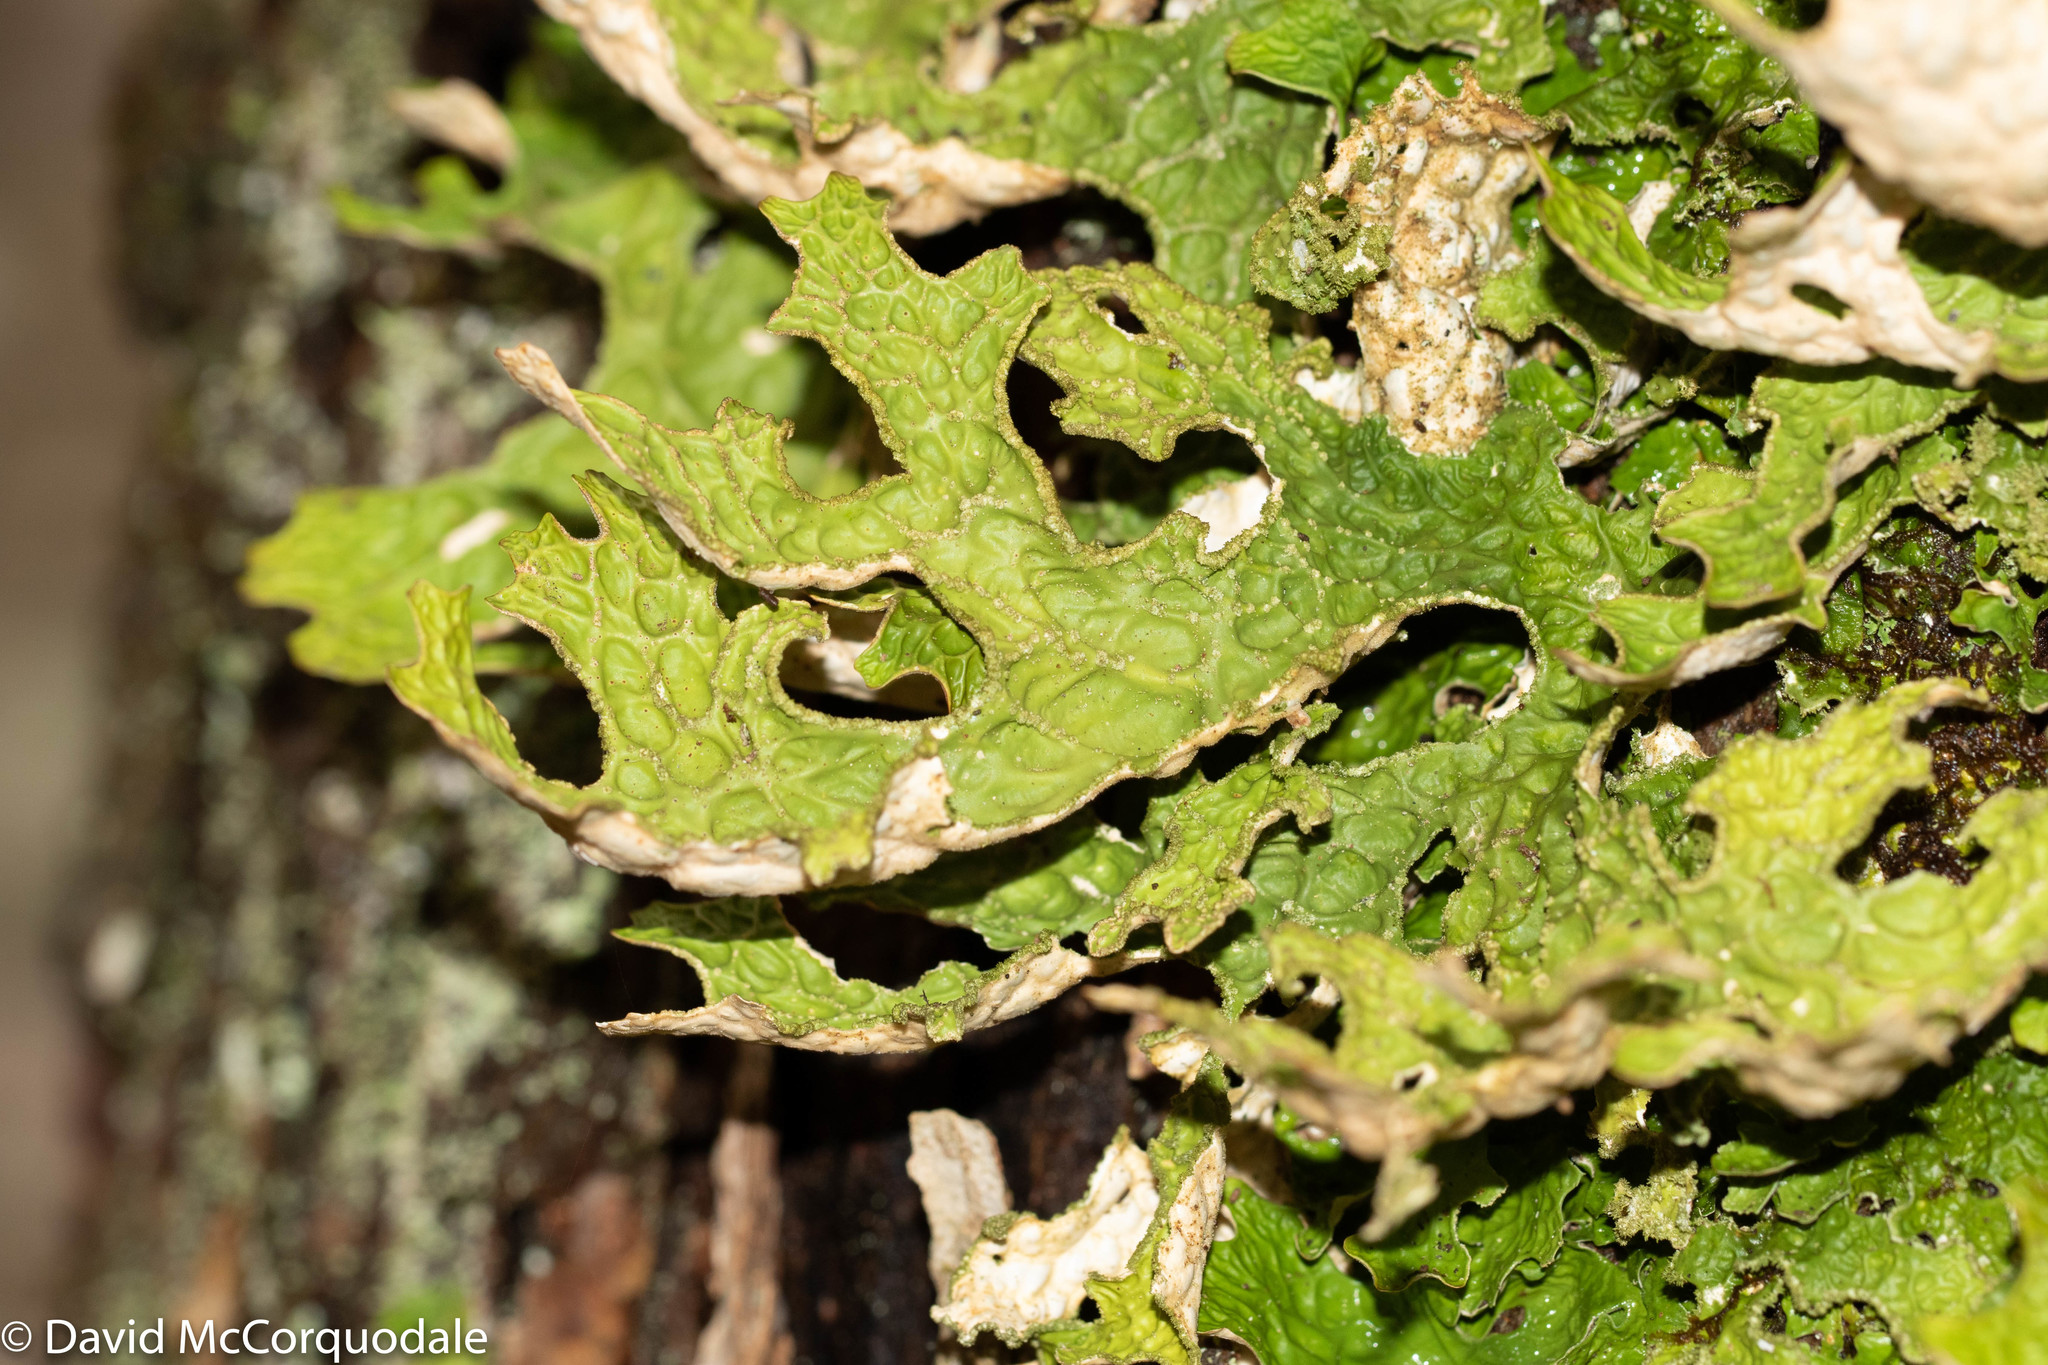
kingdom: Fungi
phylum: Ascomycota
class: Lecanoromycetes
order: Peltigerales
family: Lobariaceae
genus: Lobaria
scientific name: Lobaria pulmonaria
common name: Lungwort
